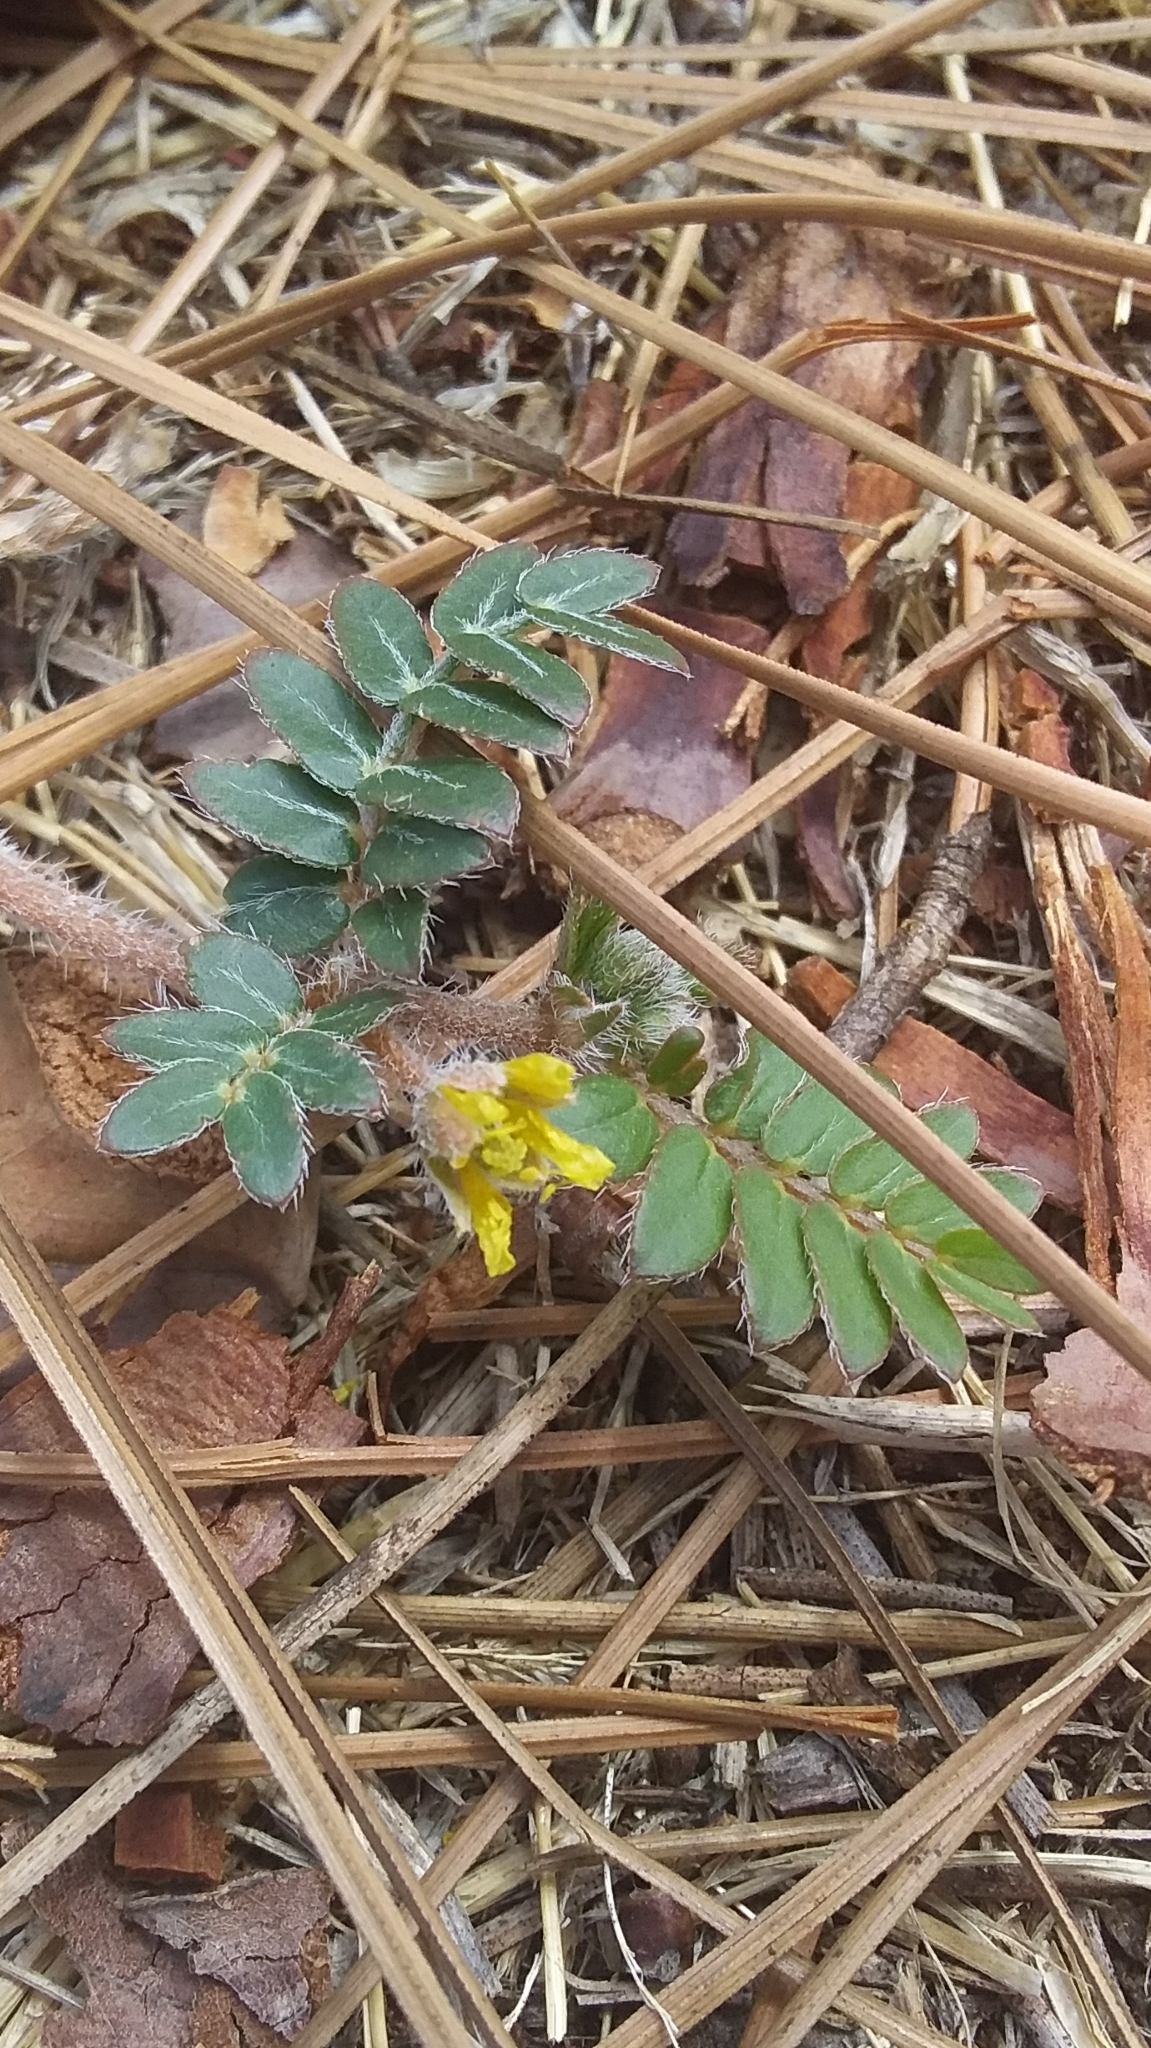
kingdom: Plantae
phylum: Tracheophyta
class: Magnoliopsida
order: Zygophyllales
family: Zygophyllaceae
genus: Tribulus
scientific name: Tribulus terrestris
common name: Puncturevine
